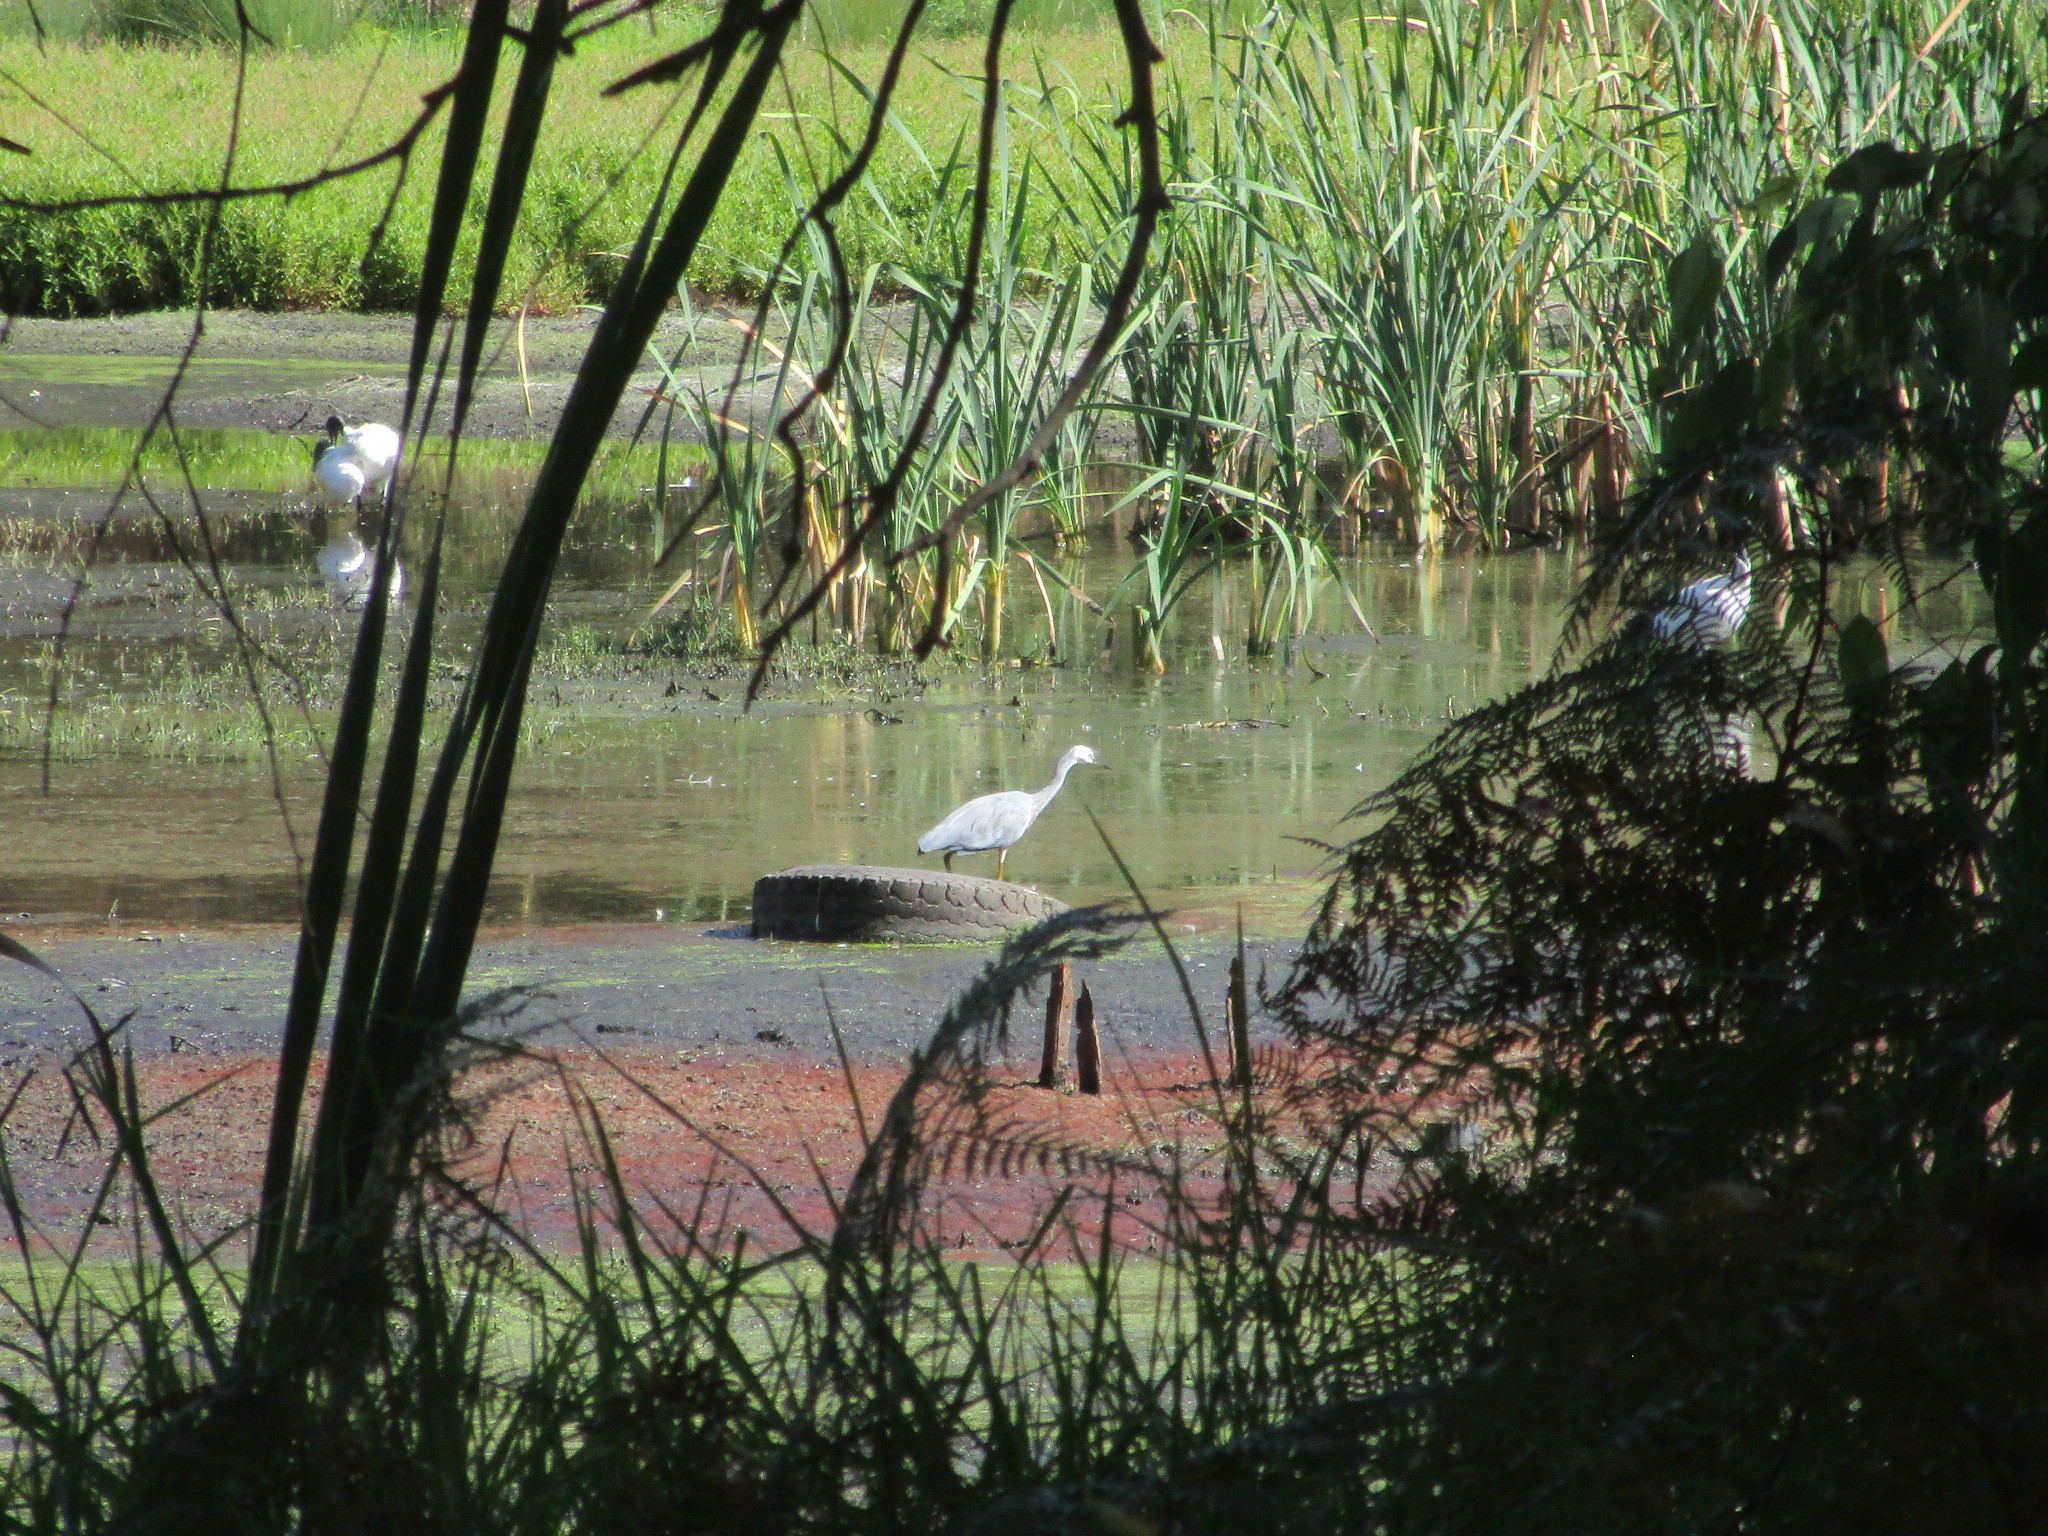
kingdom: Animalia
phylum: Chordata
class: Aves
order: Pelecaniformes
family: Ardeidae
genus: Egretta
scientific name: Egretta novaehollandiae
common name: White-faced heron
